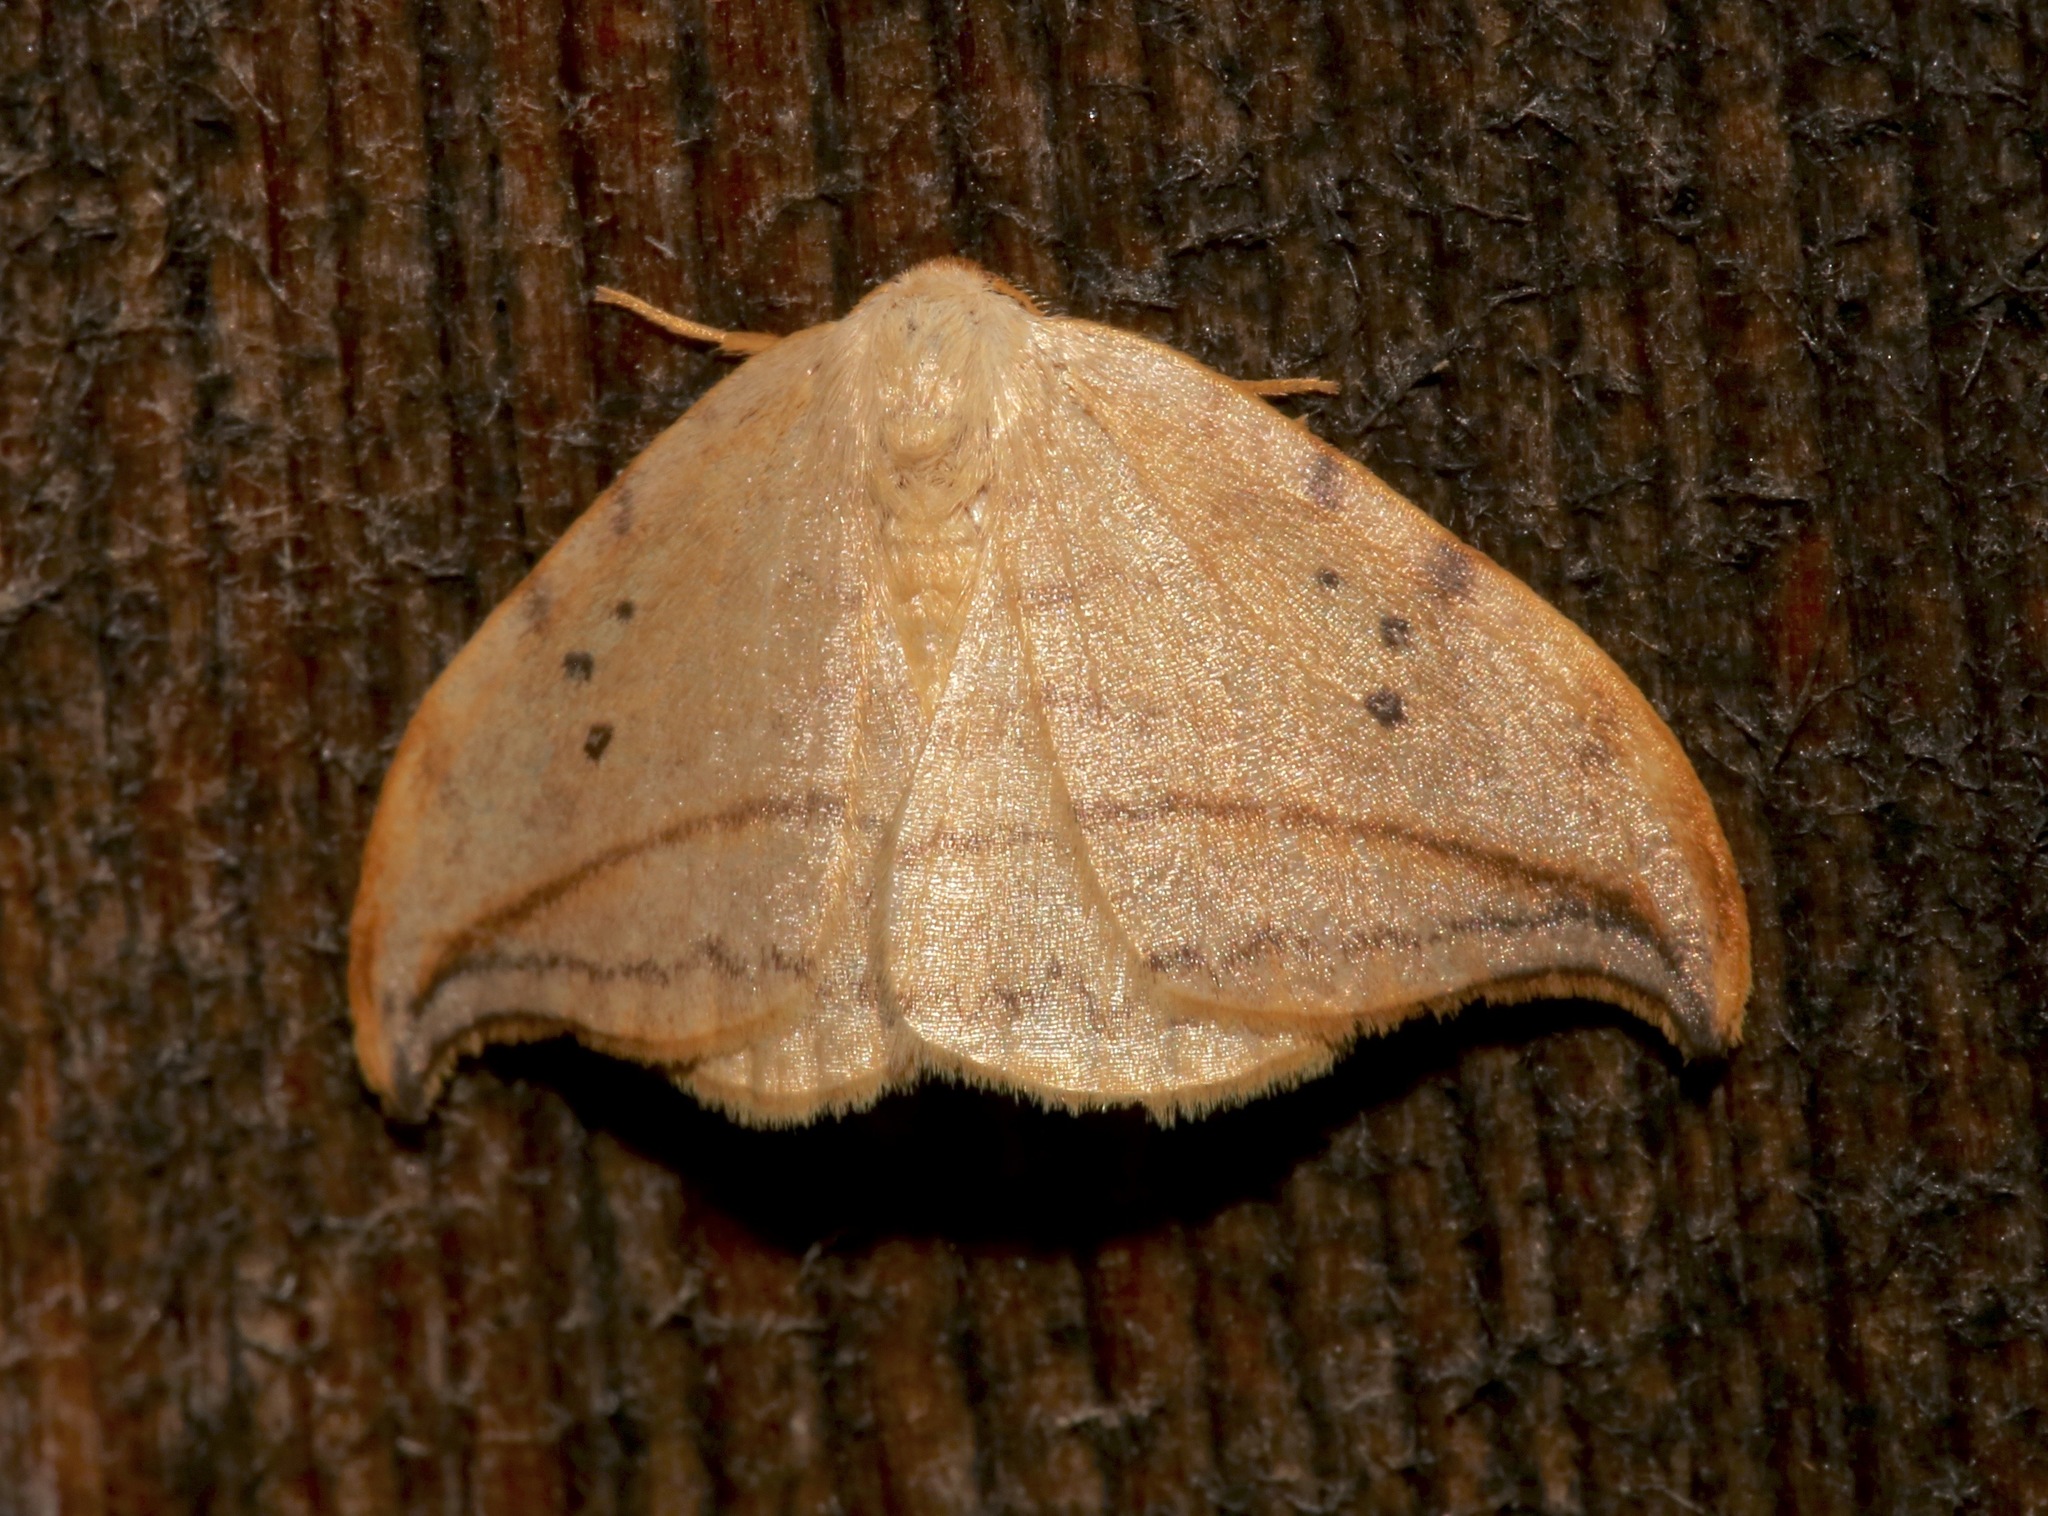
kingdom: Animalia
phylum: Arthropoda
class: Insecta
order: Lepidoptera
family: Drepanidae
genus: Drepana
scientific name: Drepana arcuata
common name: Arched hooktip moth
